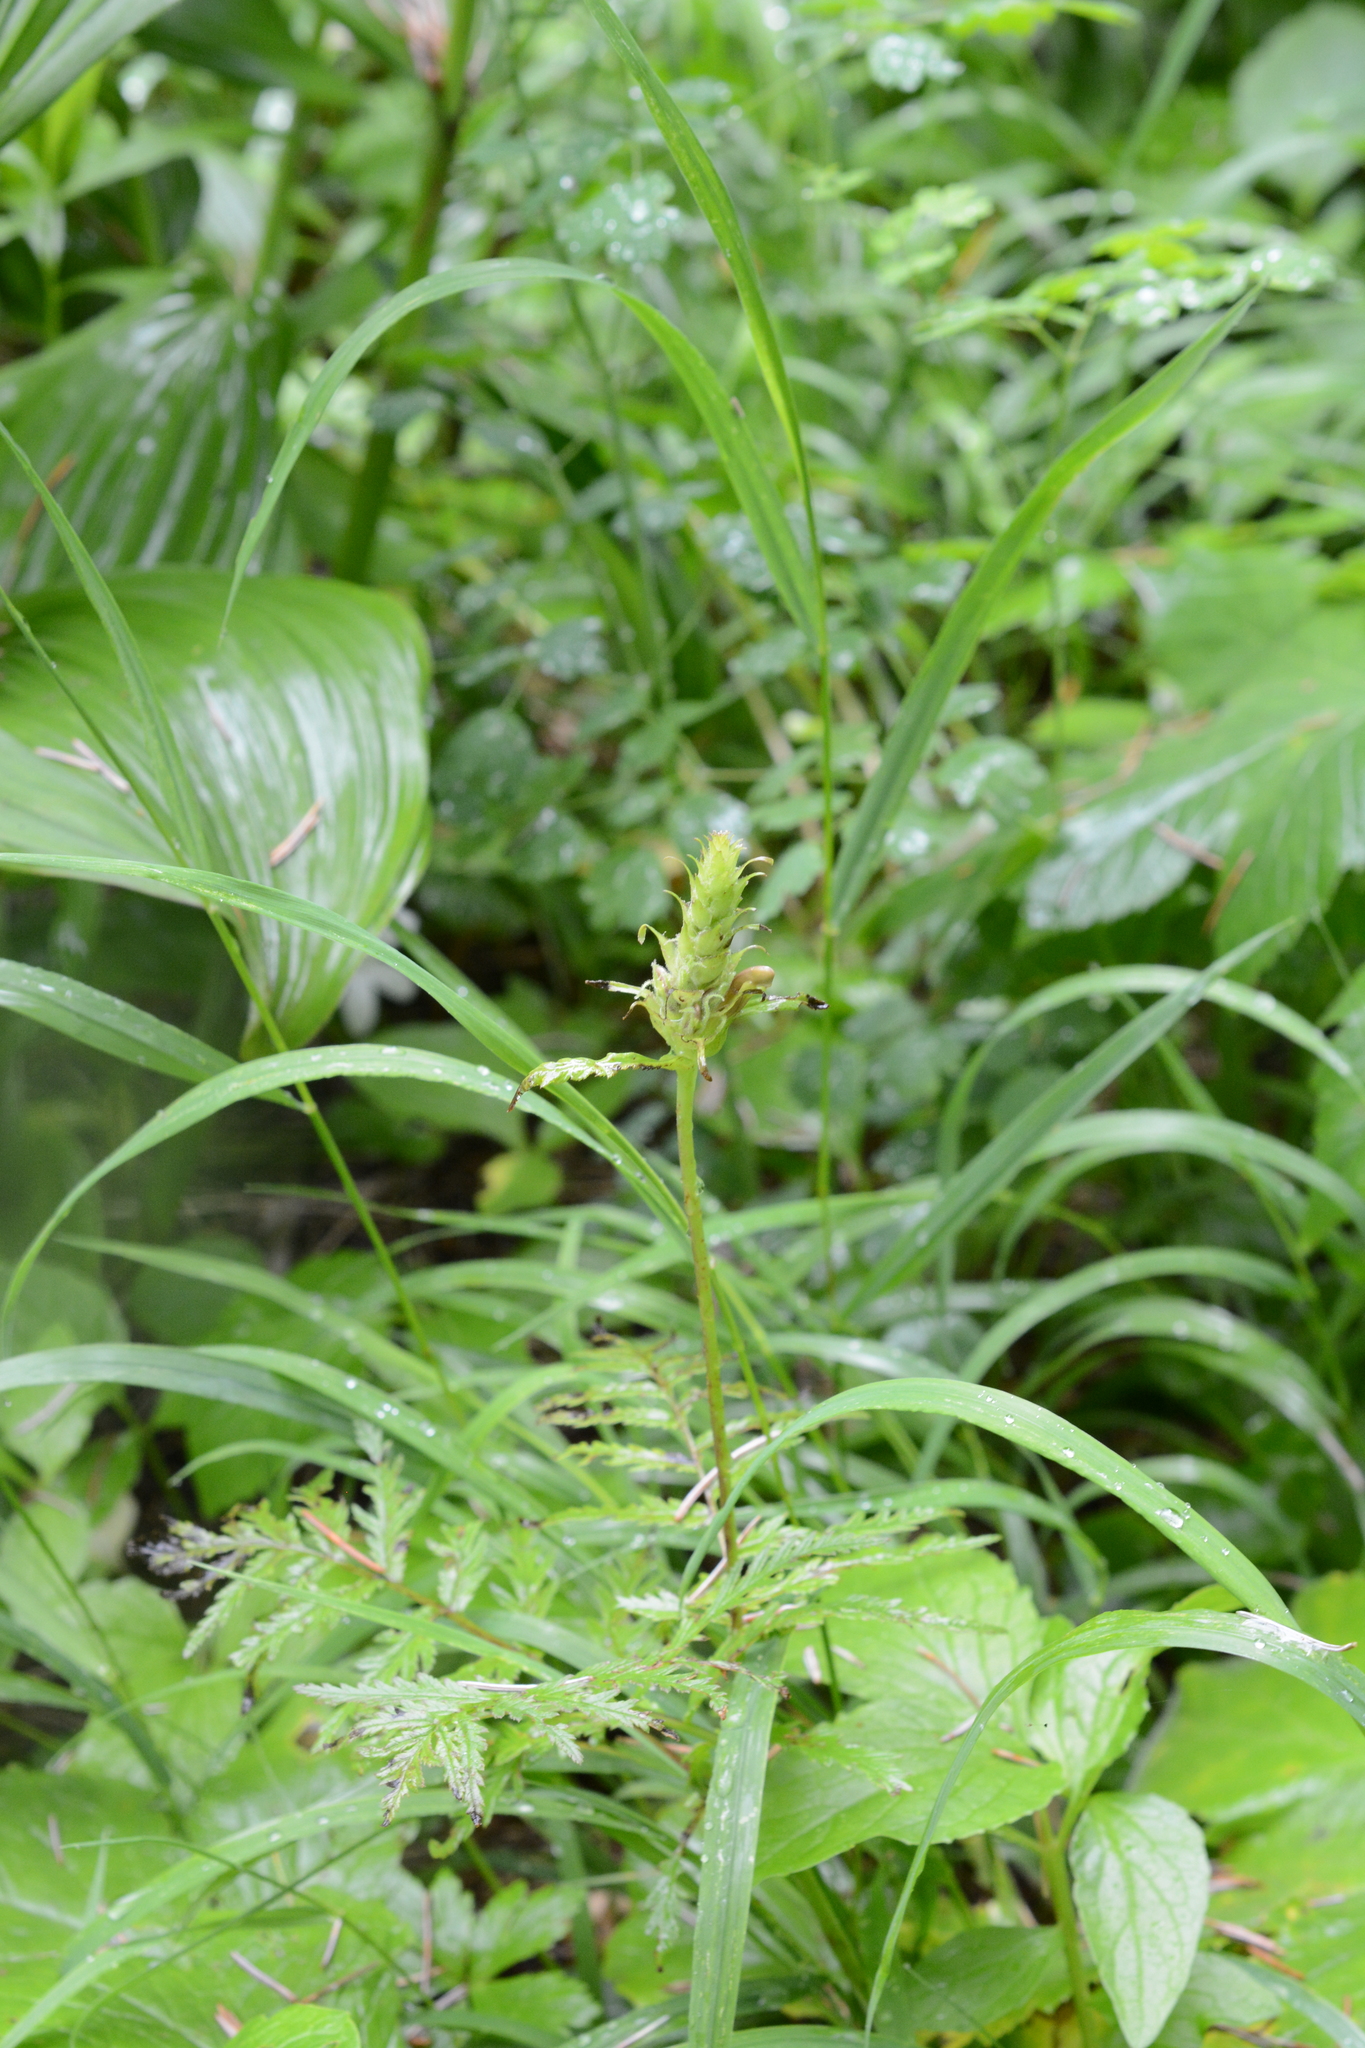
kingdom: Plantae
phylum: Tracheophyta
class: Magnoliopsida
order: Lamiales
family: Orobanchaceae
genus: Pedicularis
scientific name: Pedicularis bracteosa
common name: Bracted lousewort
